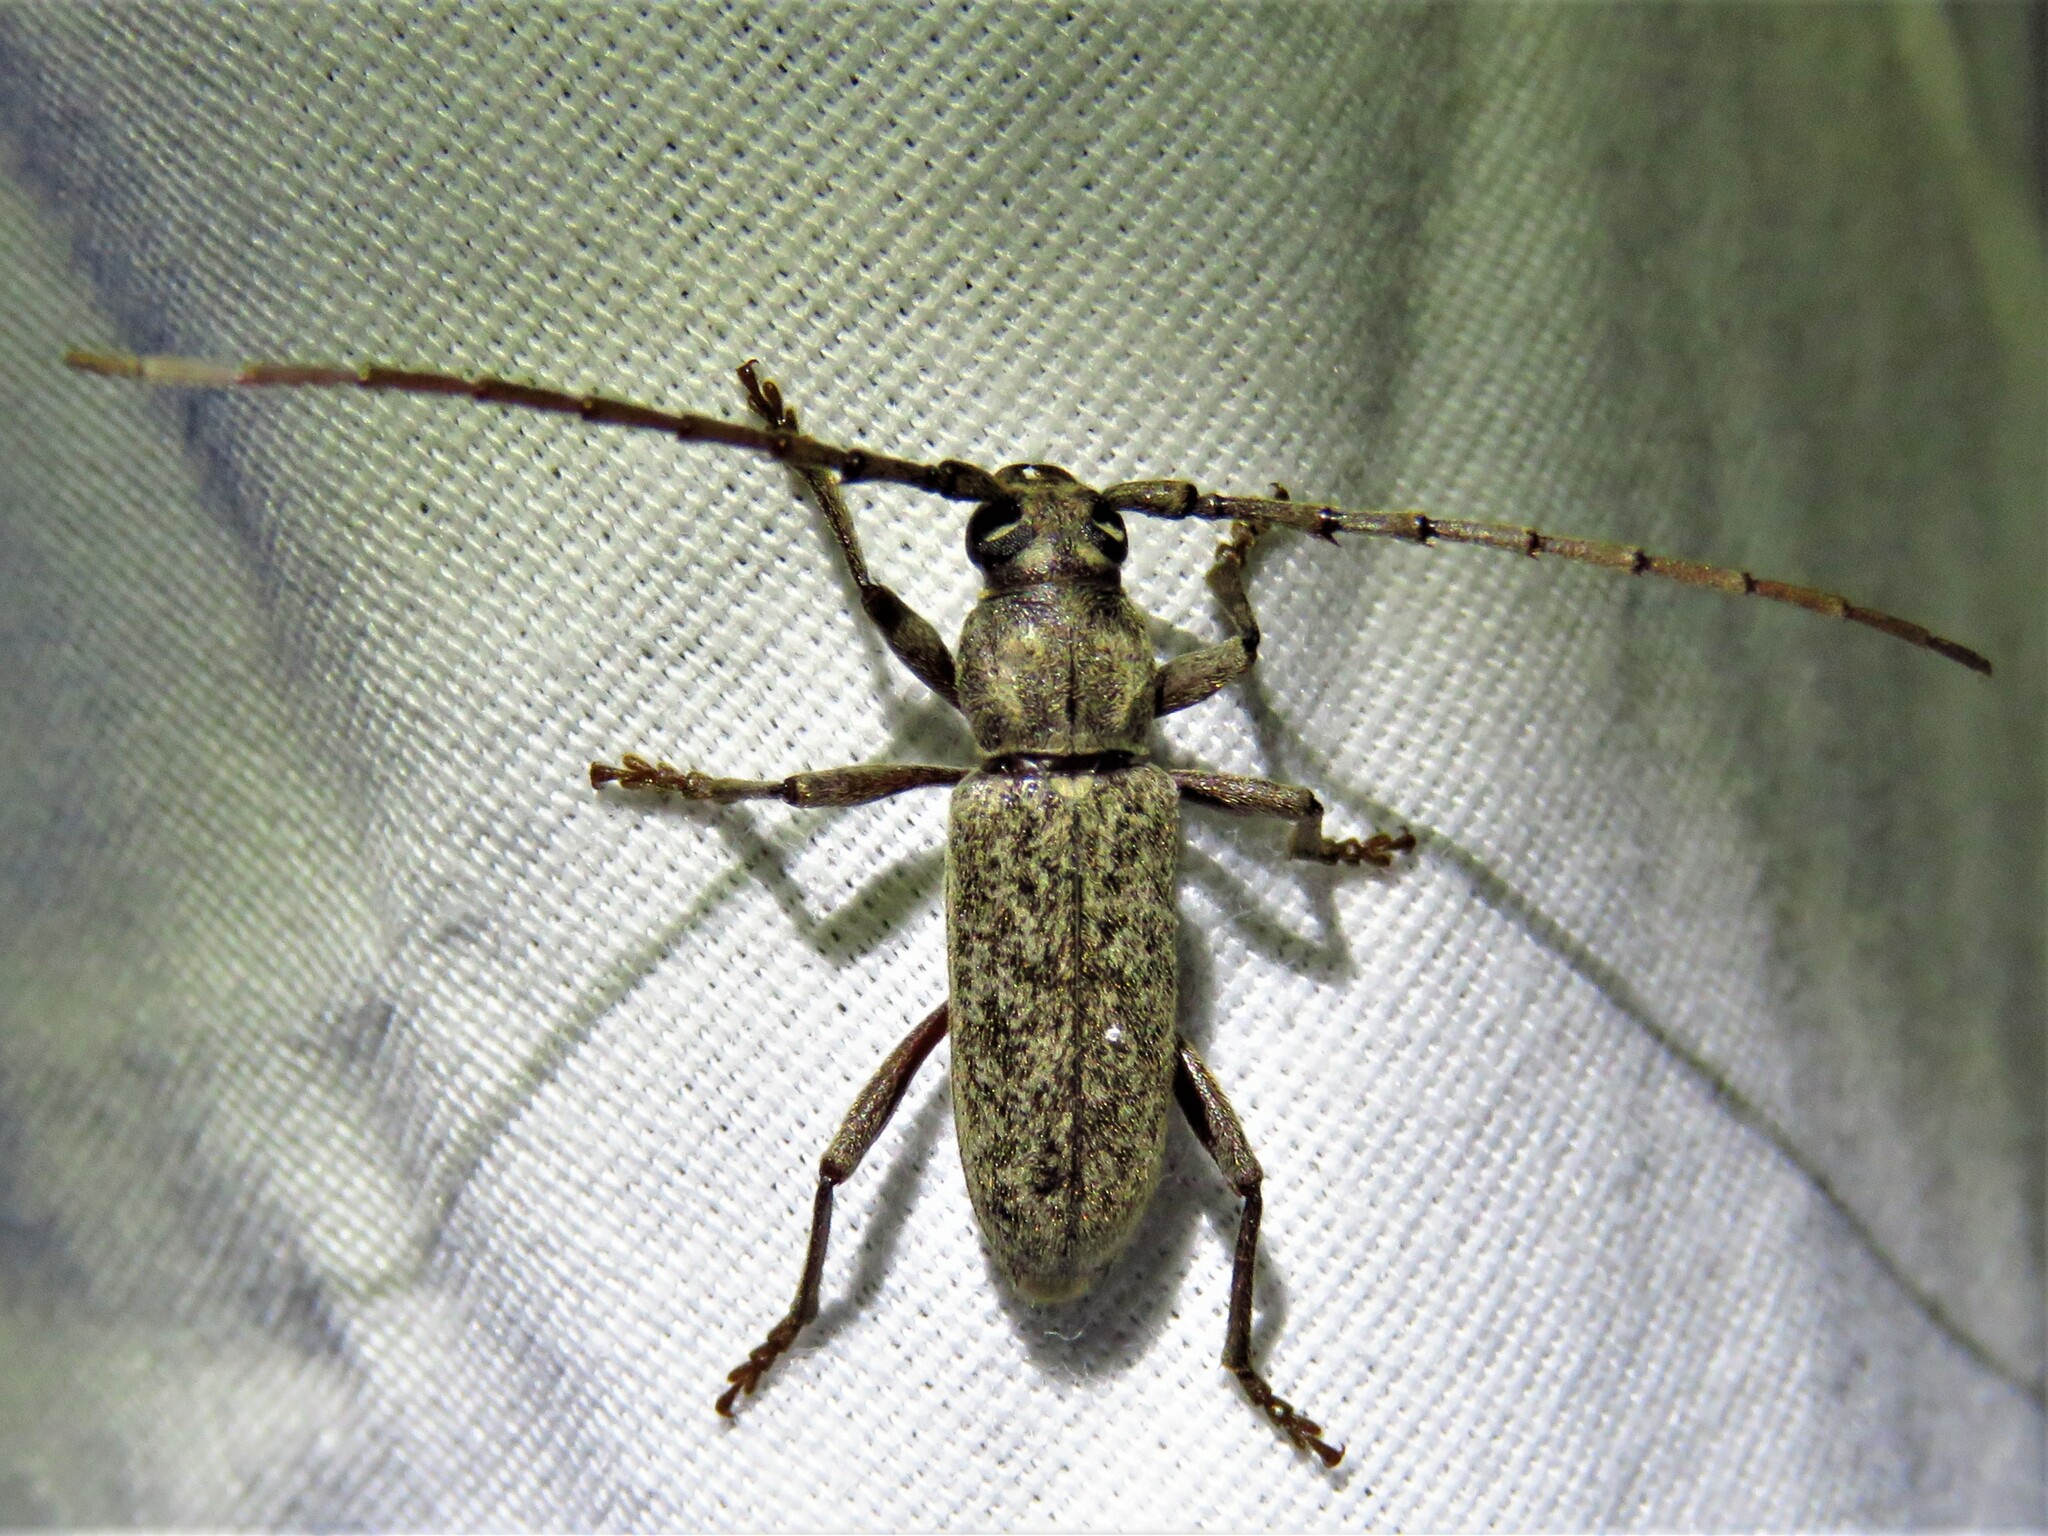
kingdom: Animalia
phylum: Arthropoda
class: Insecta
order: Coleoptera
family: Cerambycidae
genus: Enaphalodes
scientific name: Enaphalodes atomarius
